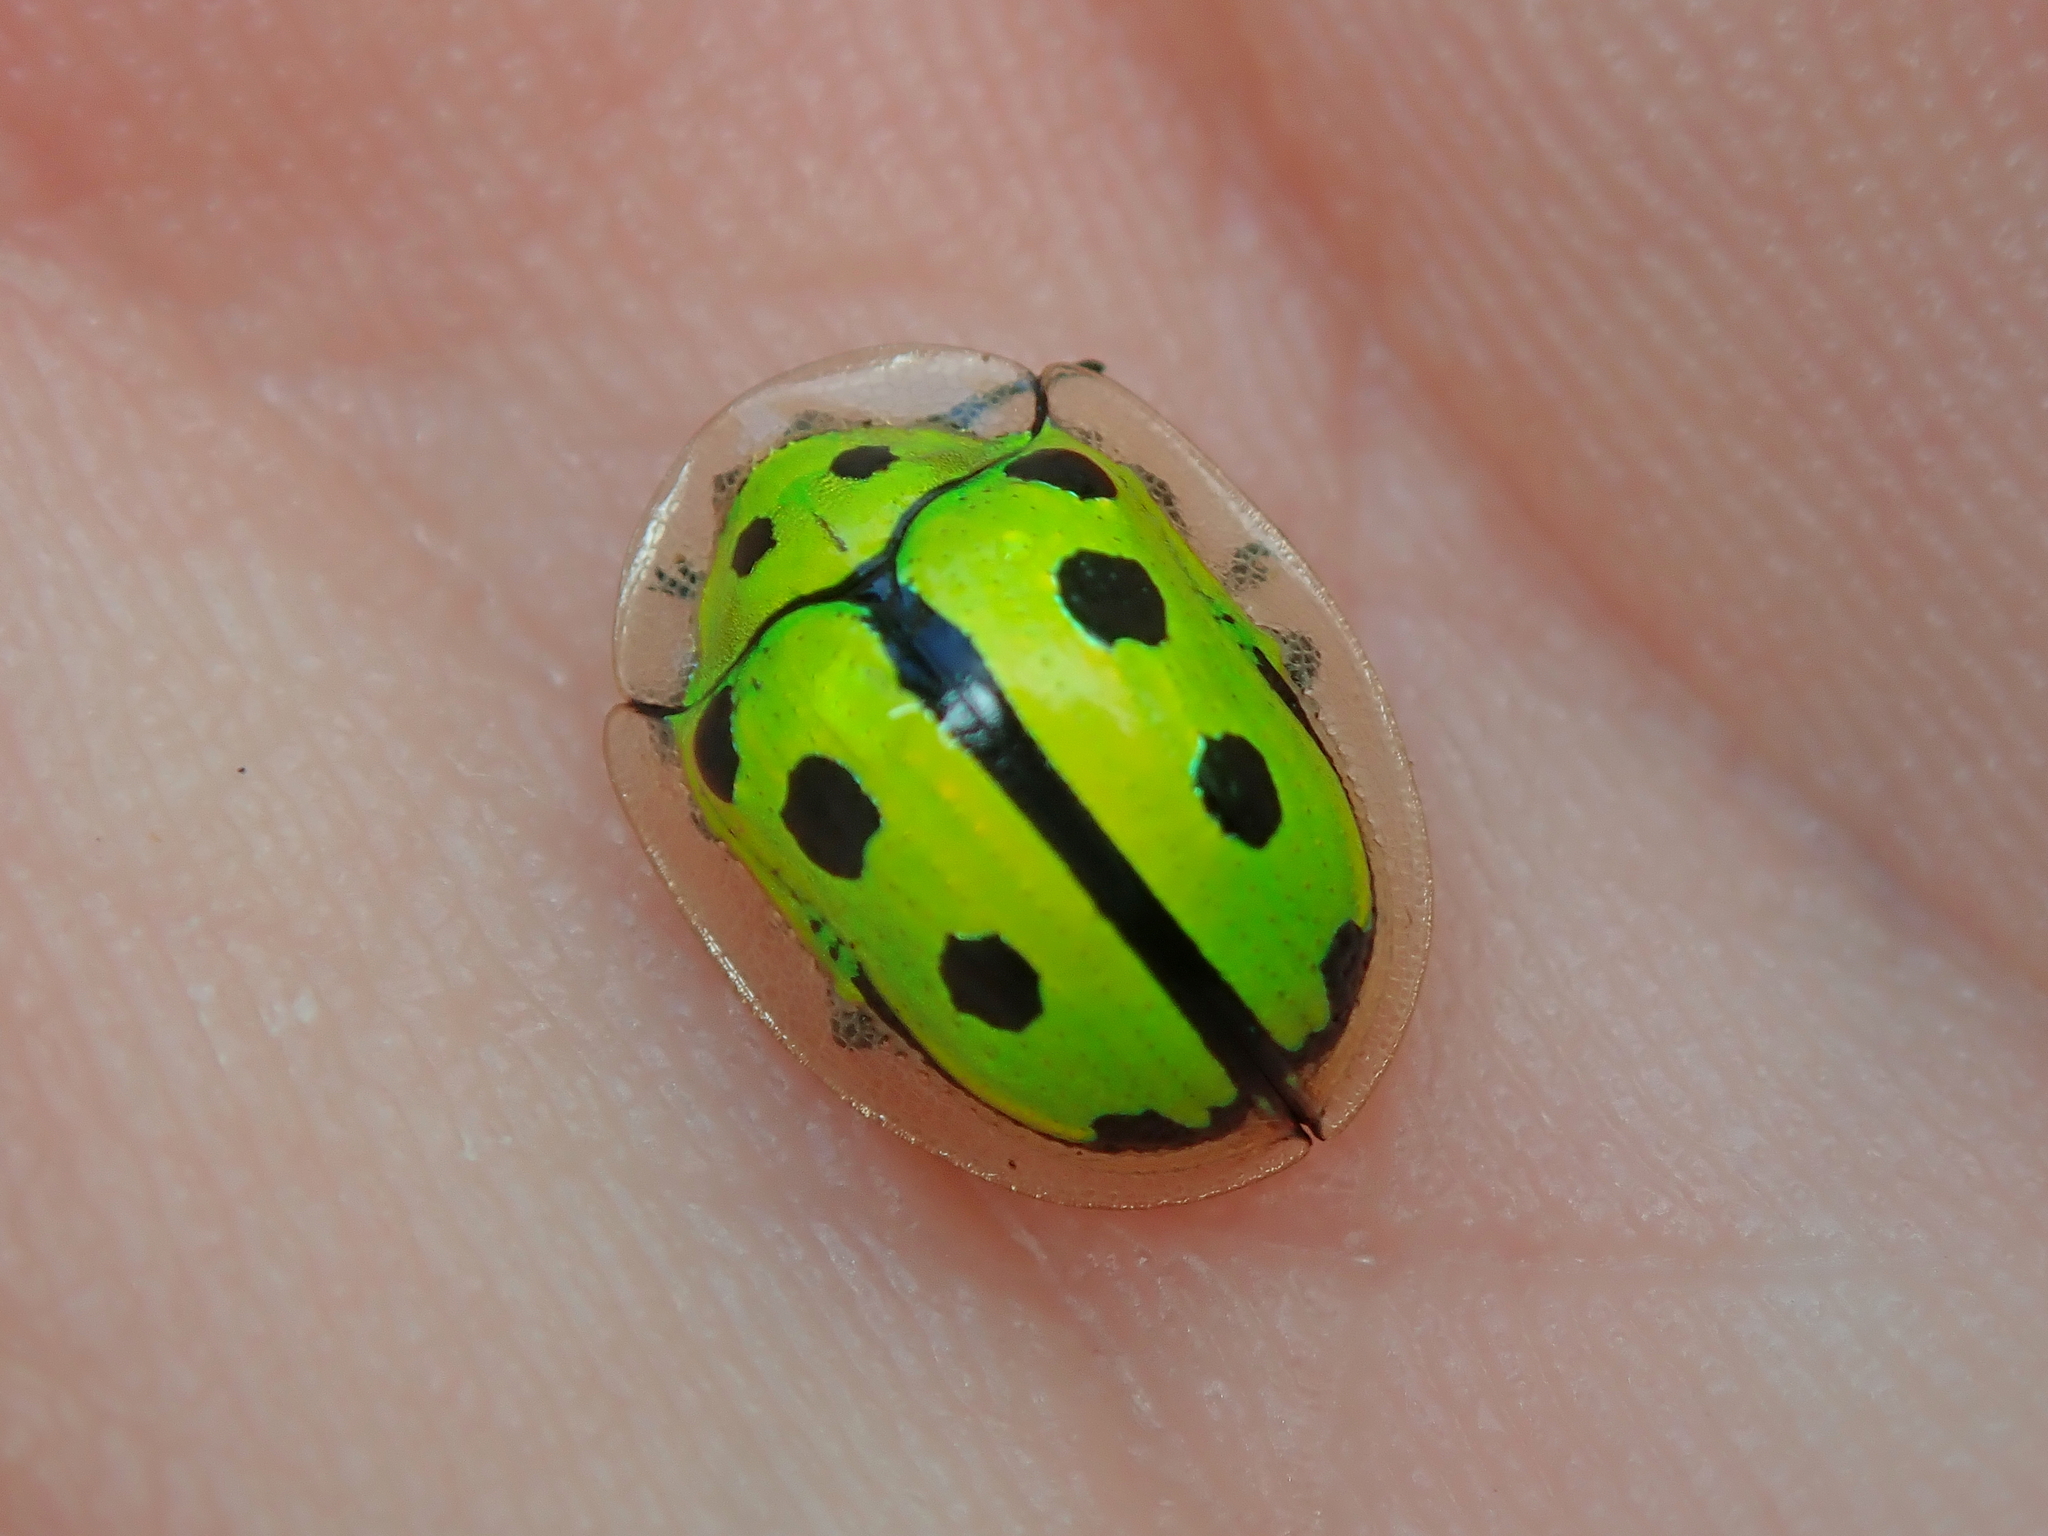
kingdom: Animalia
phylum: Arthropoda
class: Insecta
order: Coleoptera
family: Chrysomelidae
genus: Coptocycla
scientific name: Coptocycla adamantina
